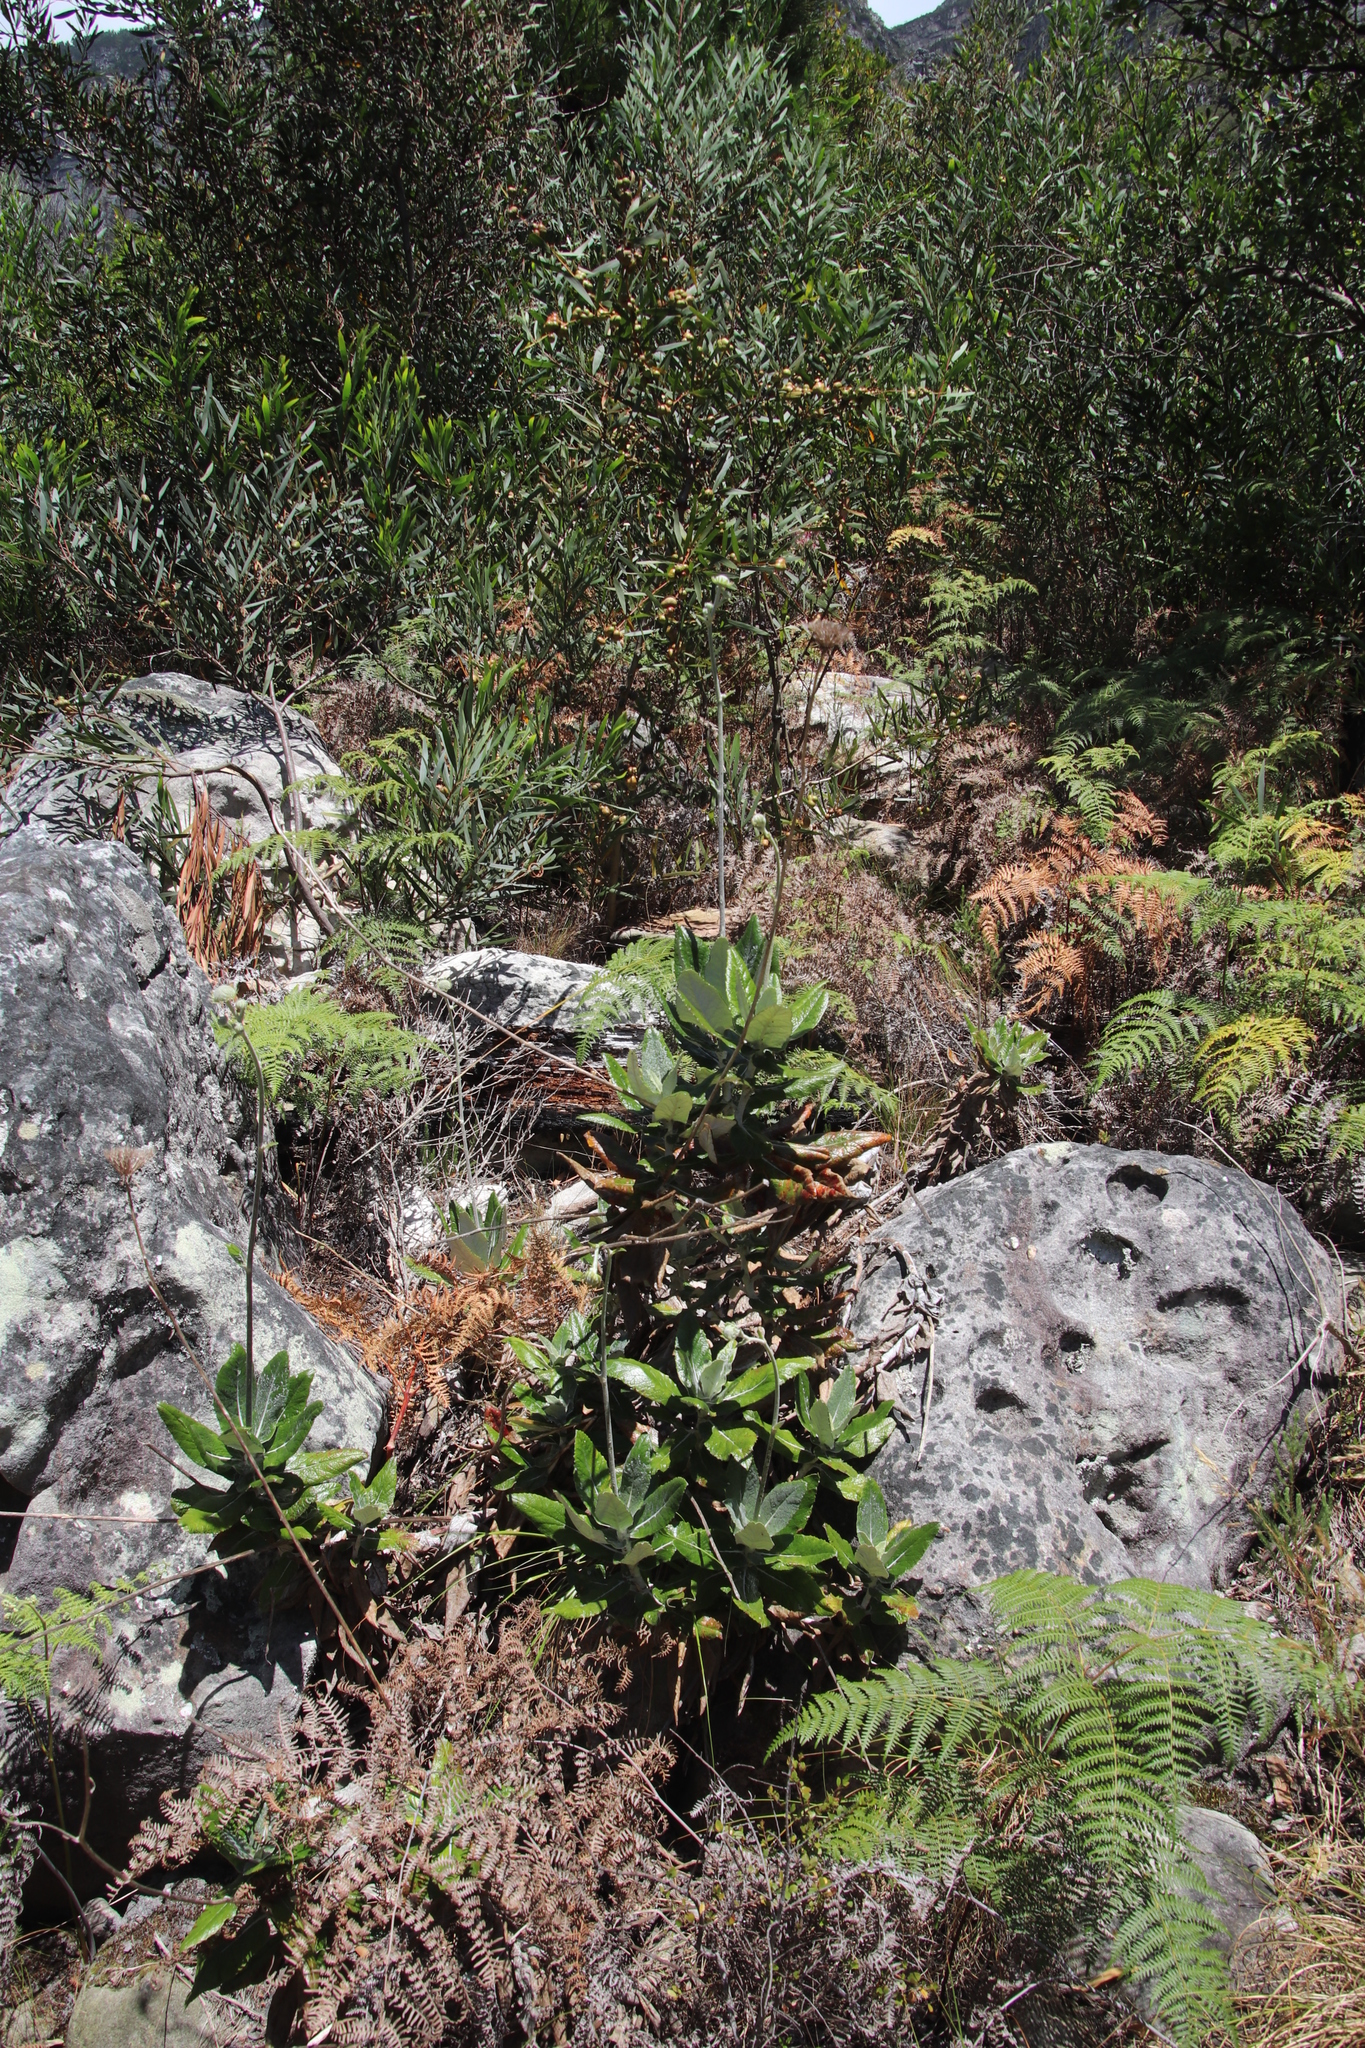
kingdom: Plantae
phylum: Tracheophyta
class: Magnoliopsida
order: Apiales
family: Apiaceae
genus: Hermas
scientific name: Hermas villosa
